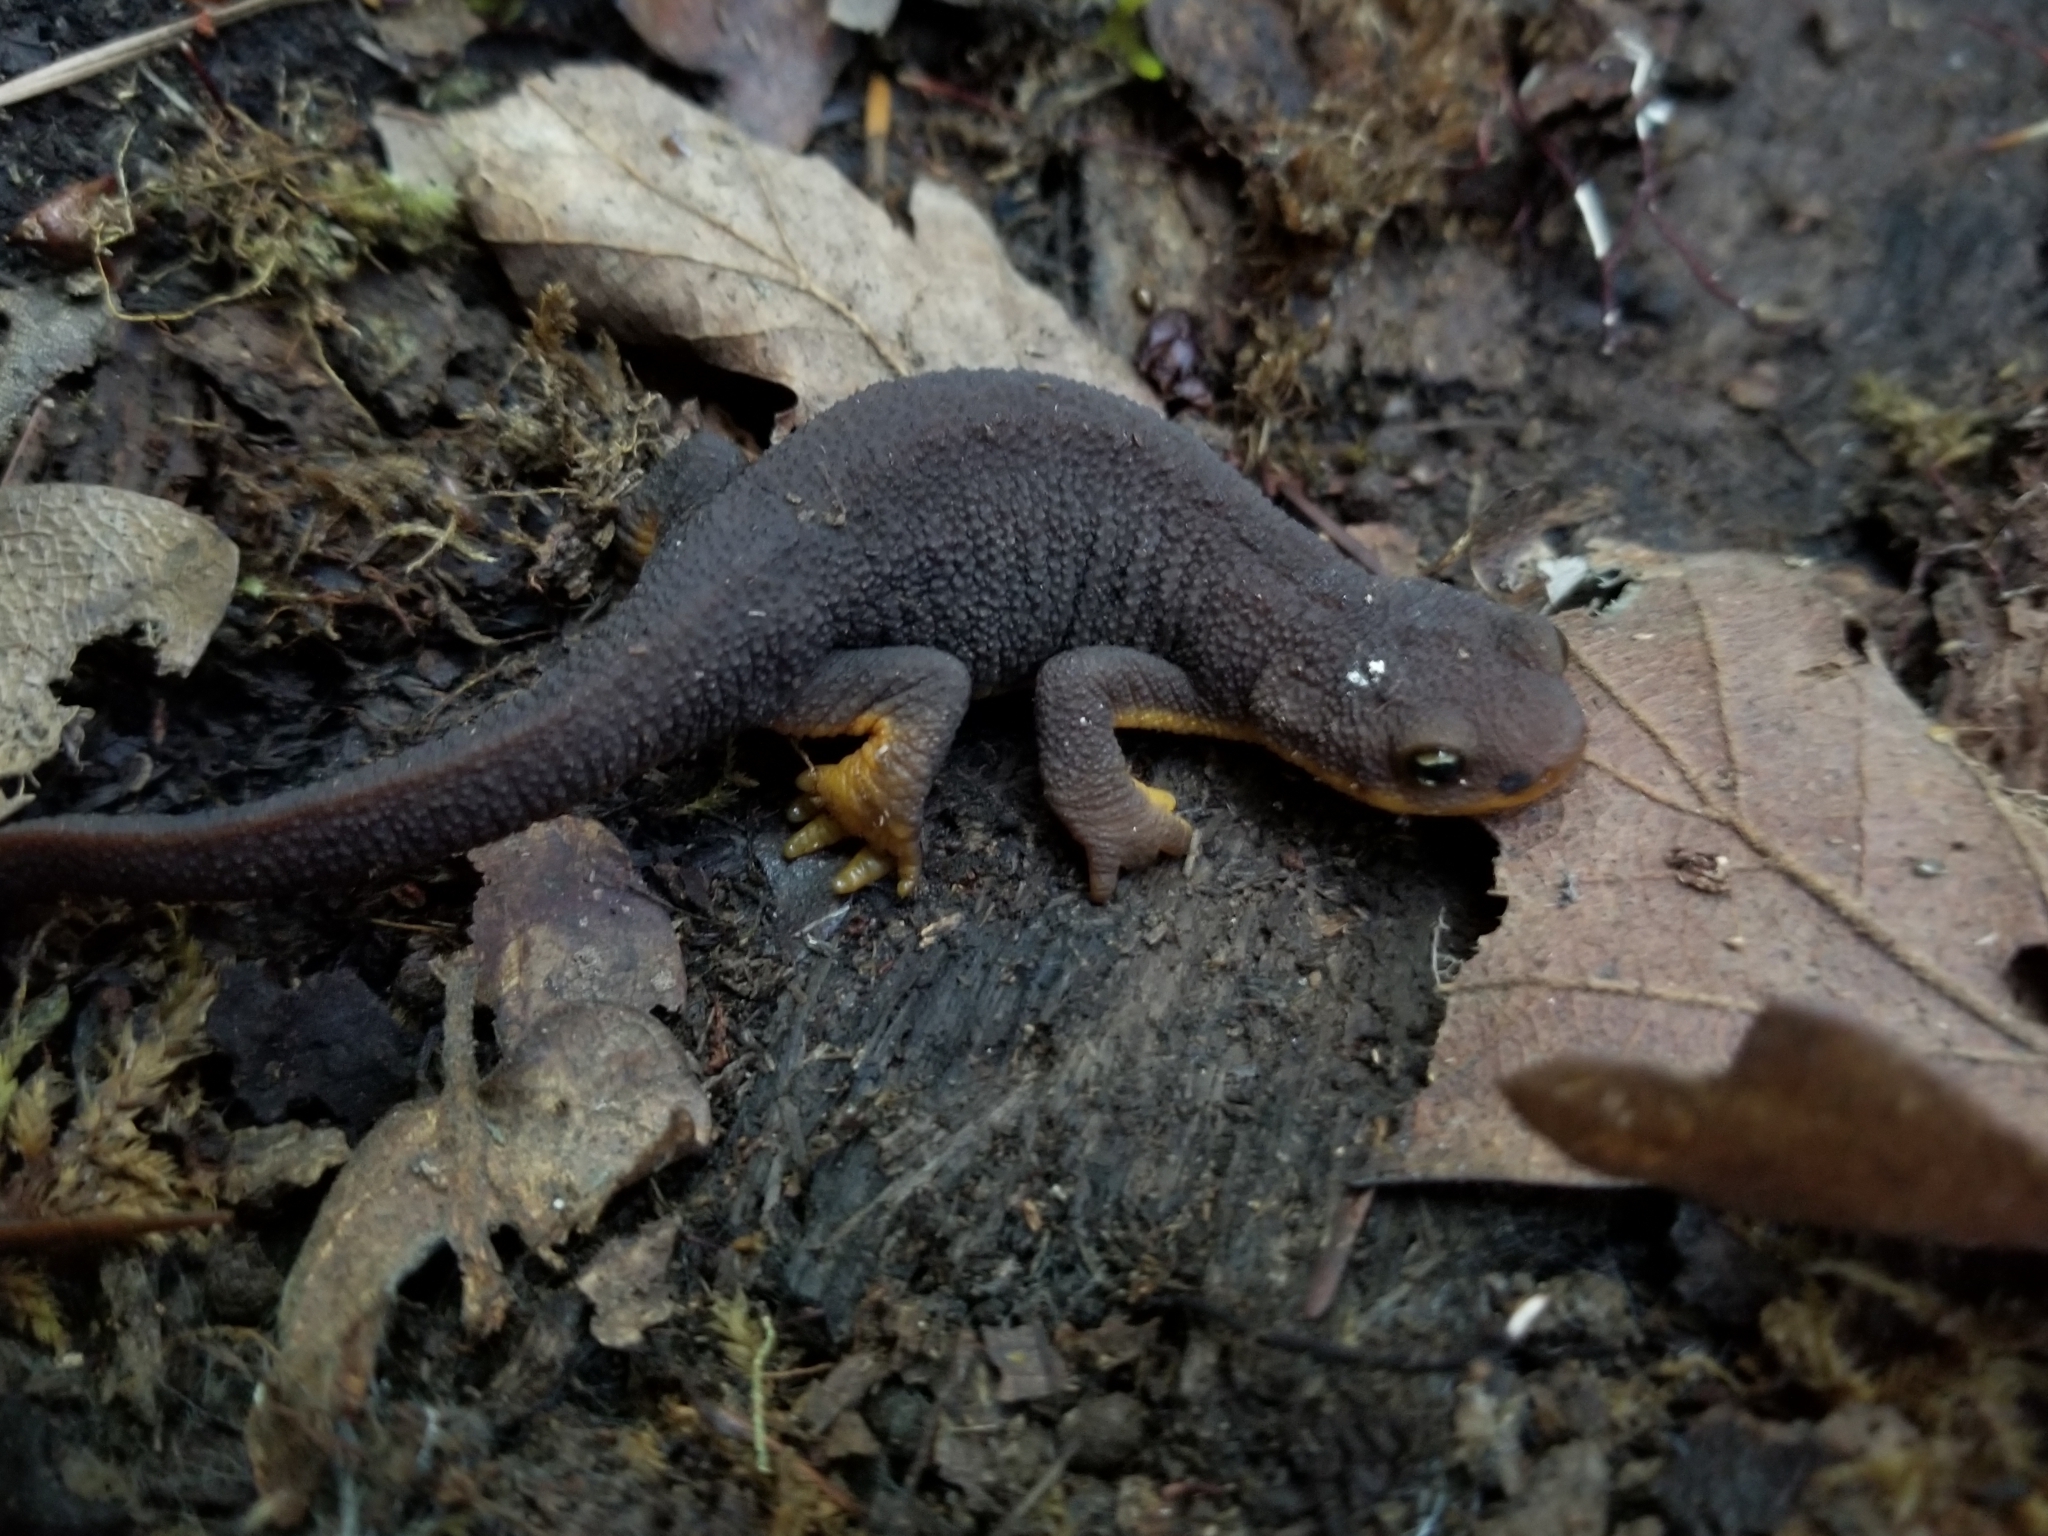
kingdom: Animalia
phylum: Chordata
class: Amphibia
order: Caudata
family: Salamandridae
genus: Taricha
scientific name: Taricha granulosa
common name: Roughskin newt
